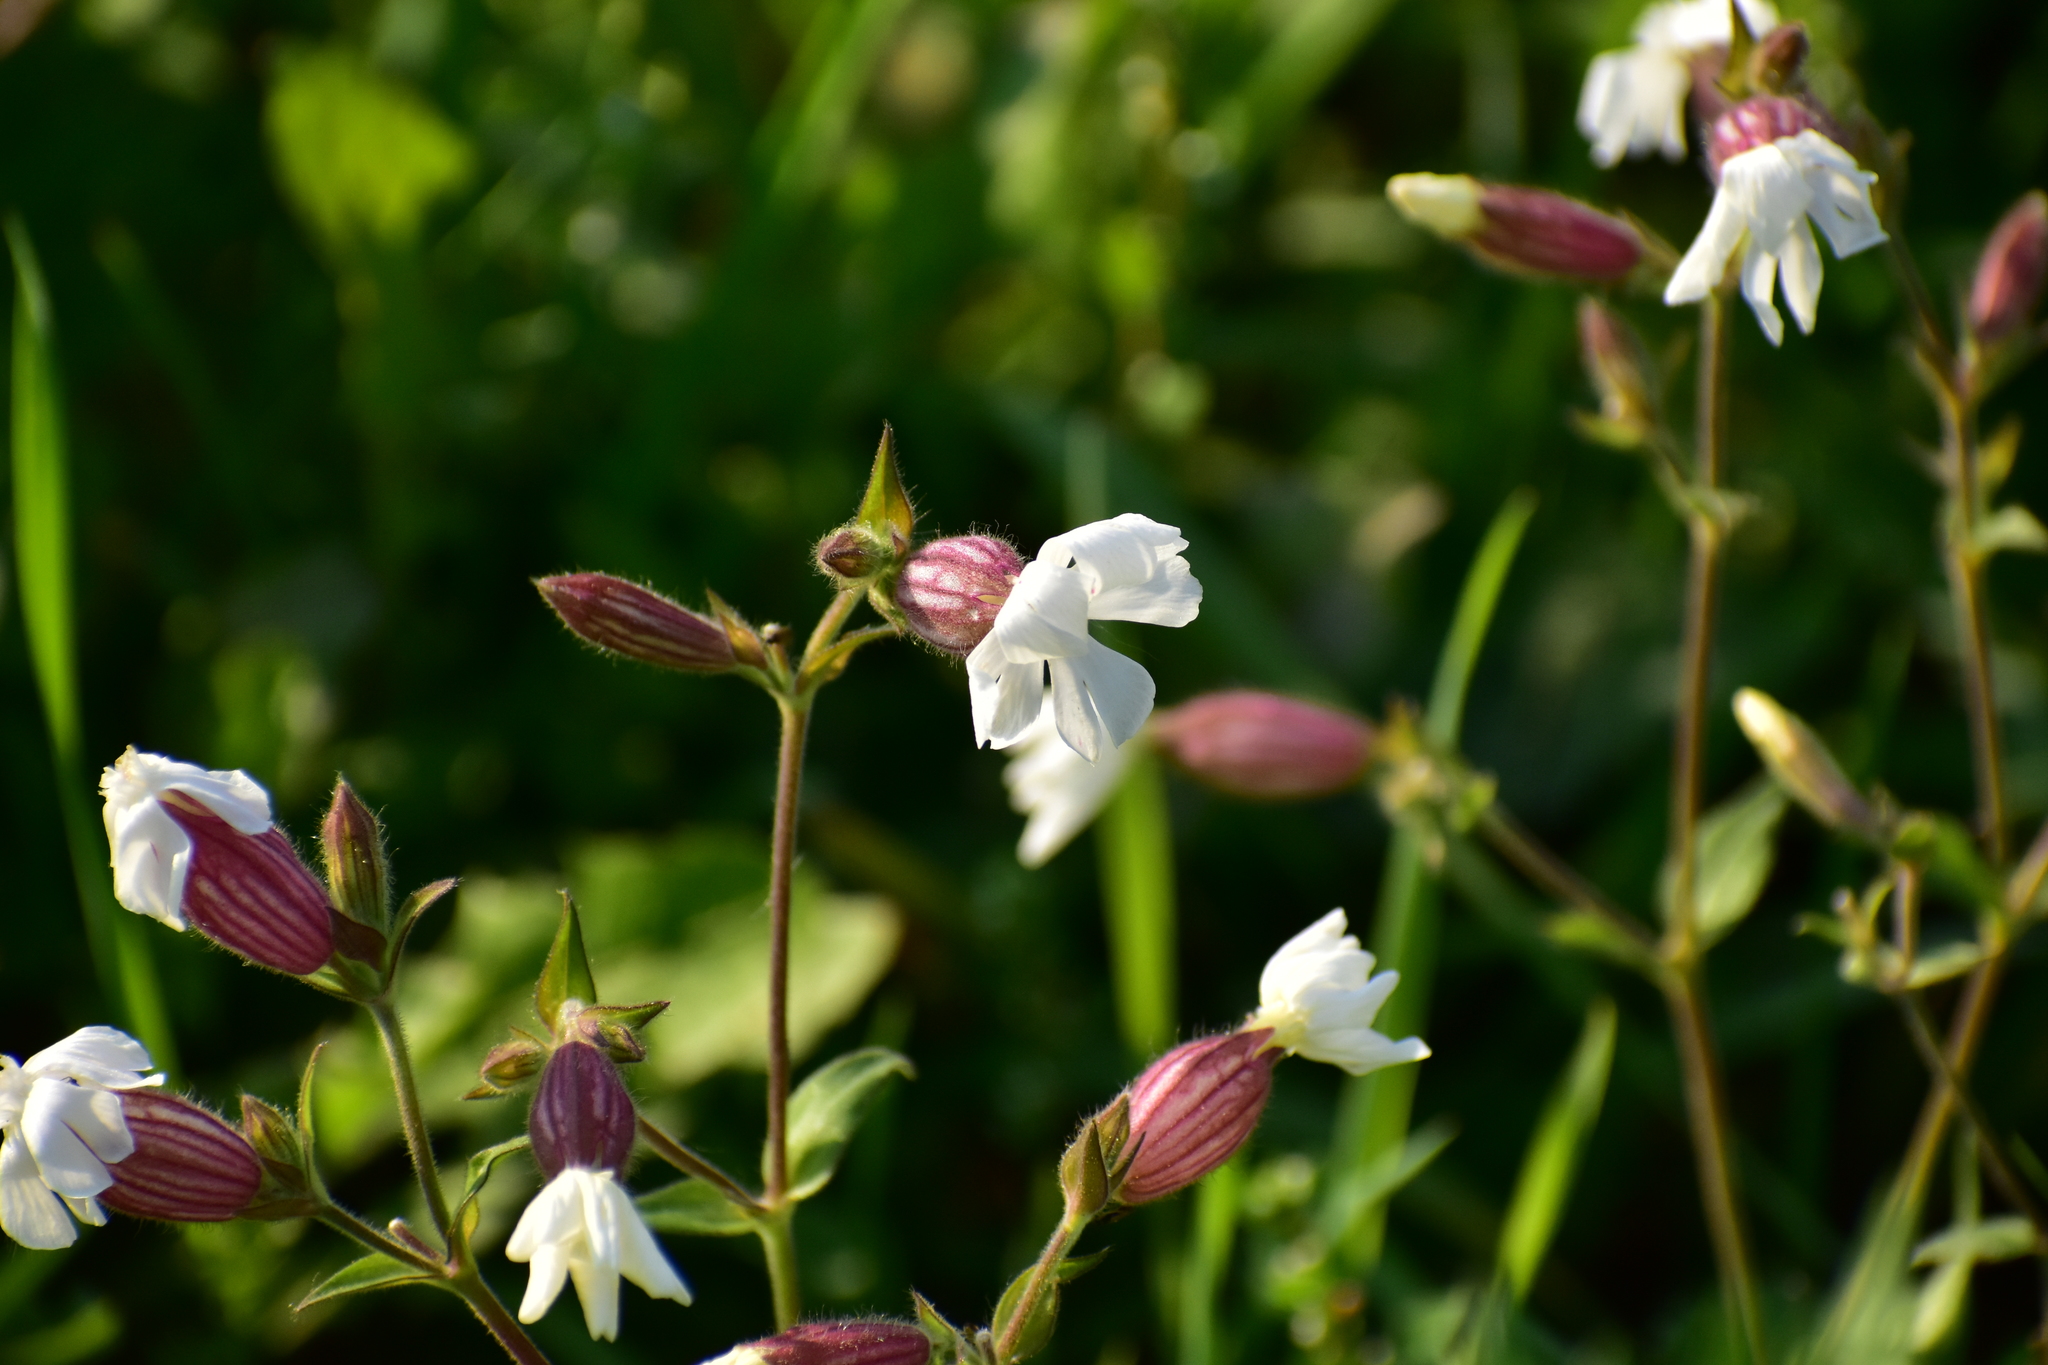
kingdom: Plantae
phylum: Tracheophyta
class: Magnoliopsida
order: Caryophyllales
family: Caryophyllaceae
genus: Silene
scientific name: Silene latifolia
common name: White campion
